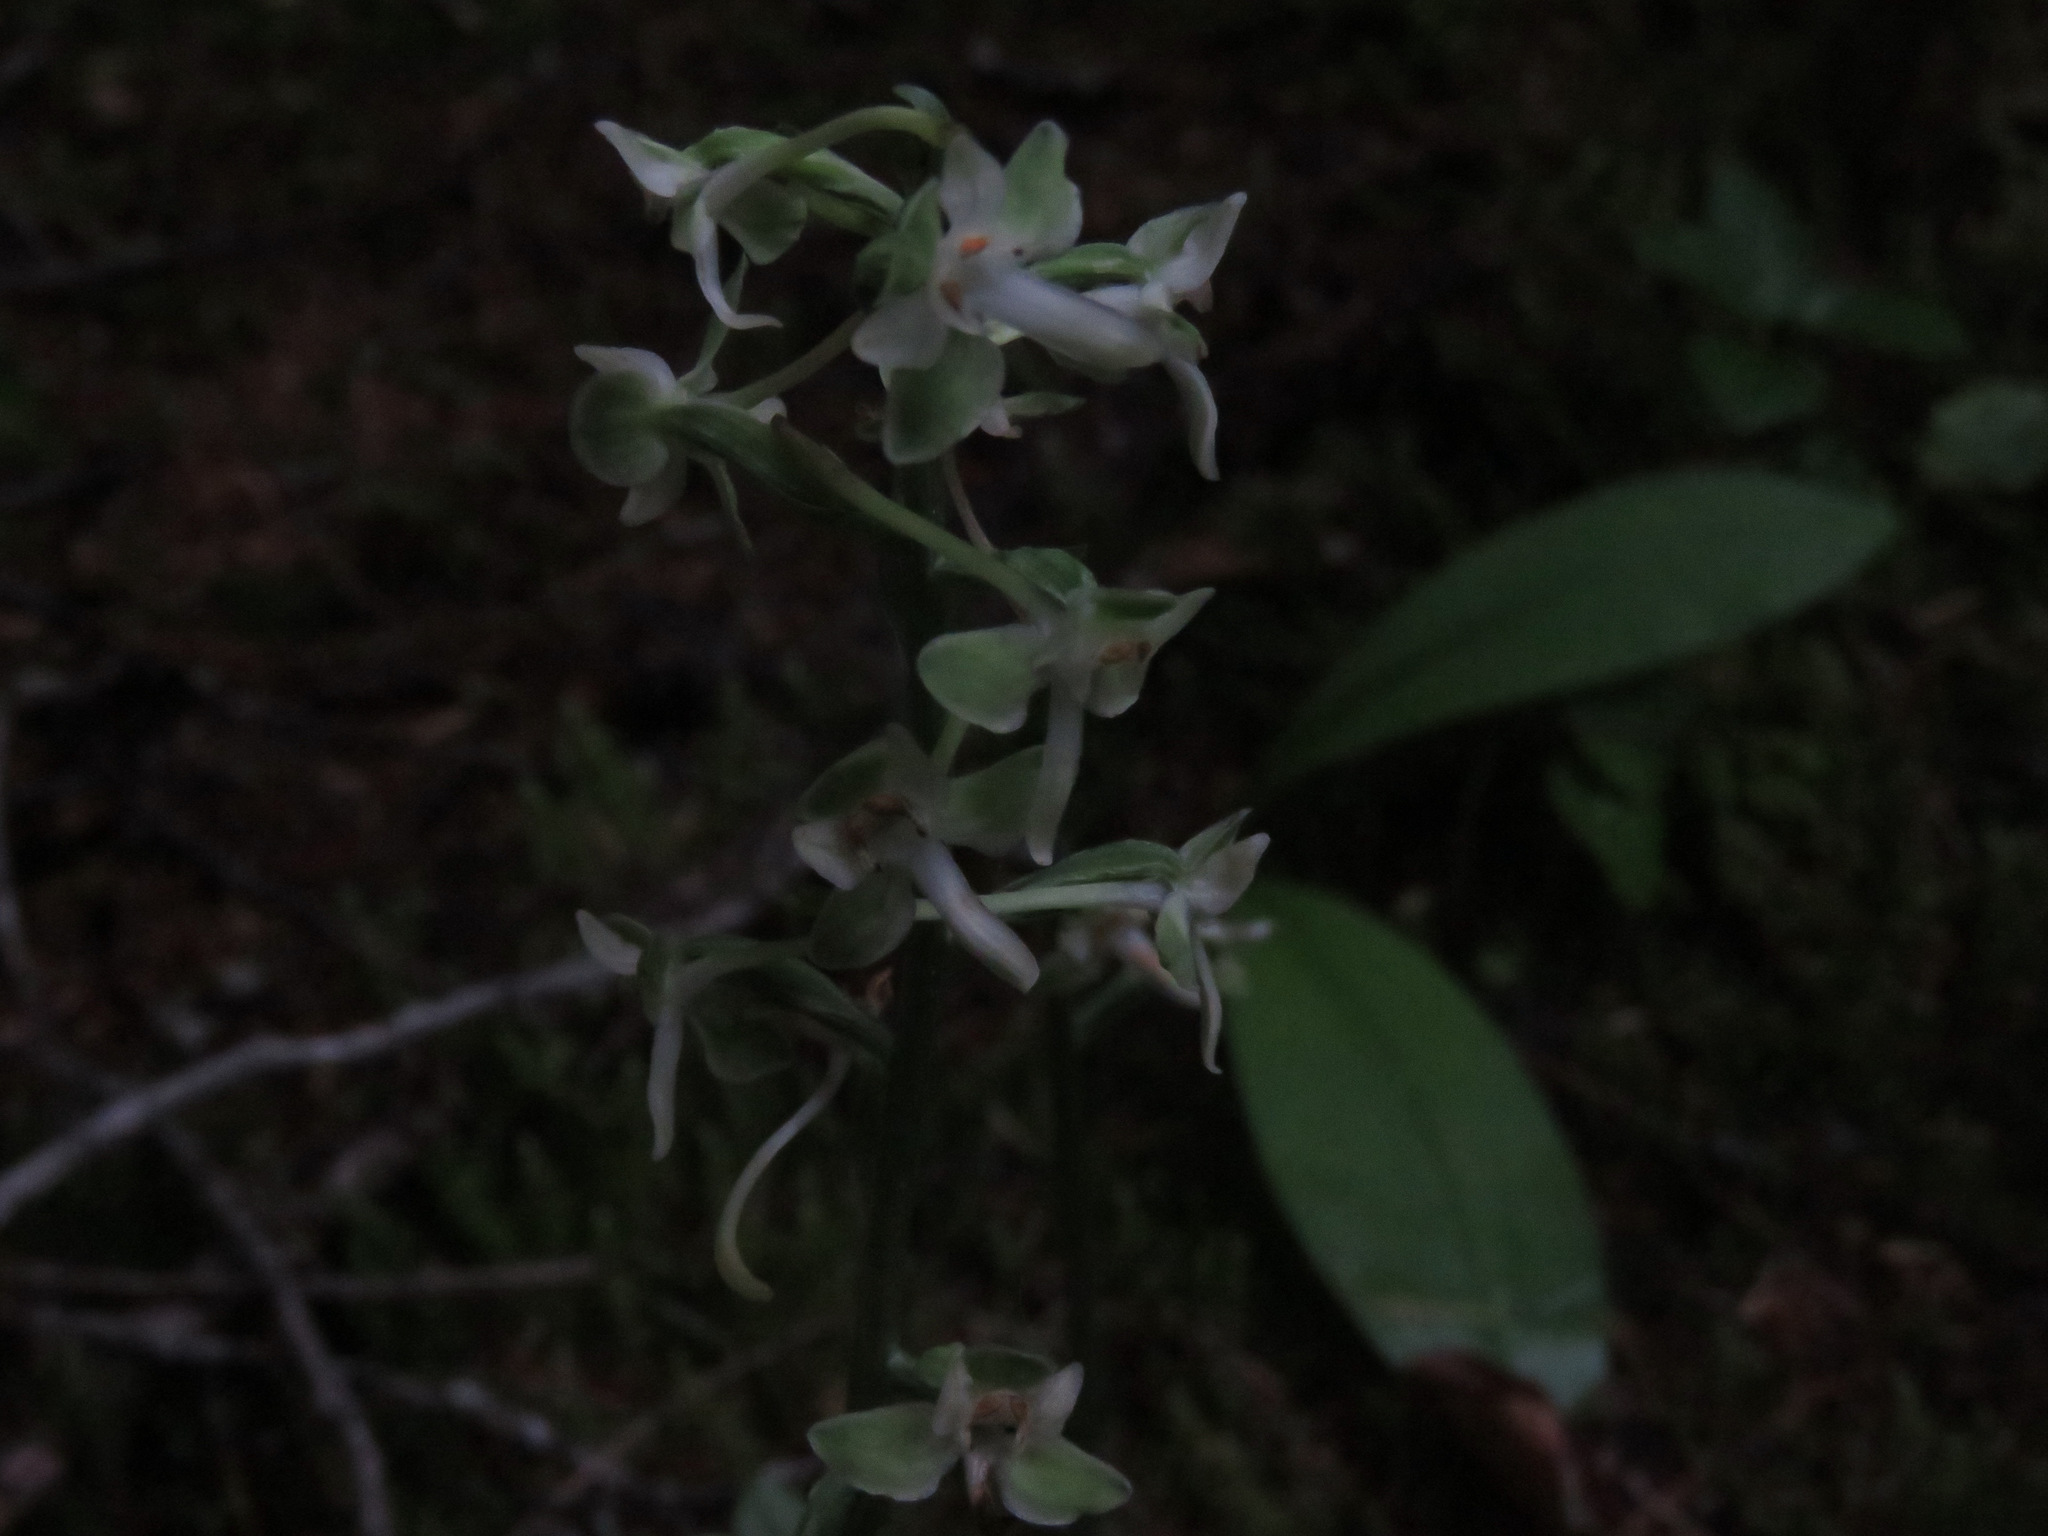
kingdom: Plantae
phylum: Tracheophyta
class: Liliopsida
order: Asparagales
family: Orchidaceae
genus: Platanthera
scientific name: Platanthera orbiculata
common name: Large round-leaved orchid
